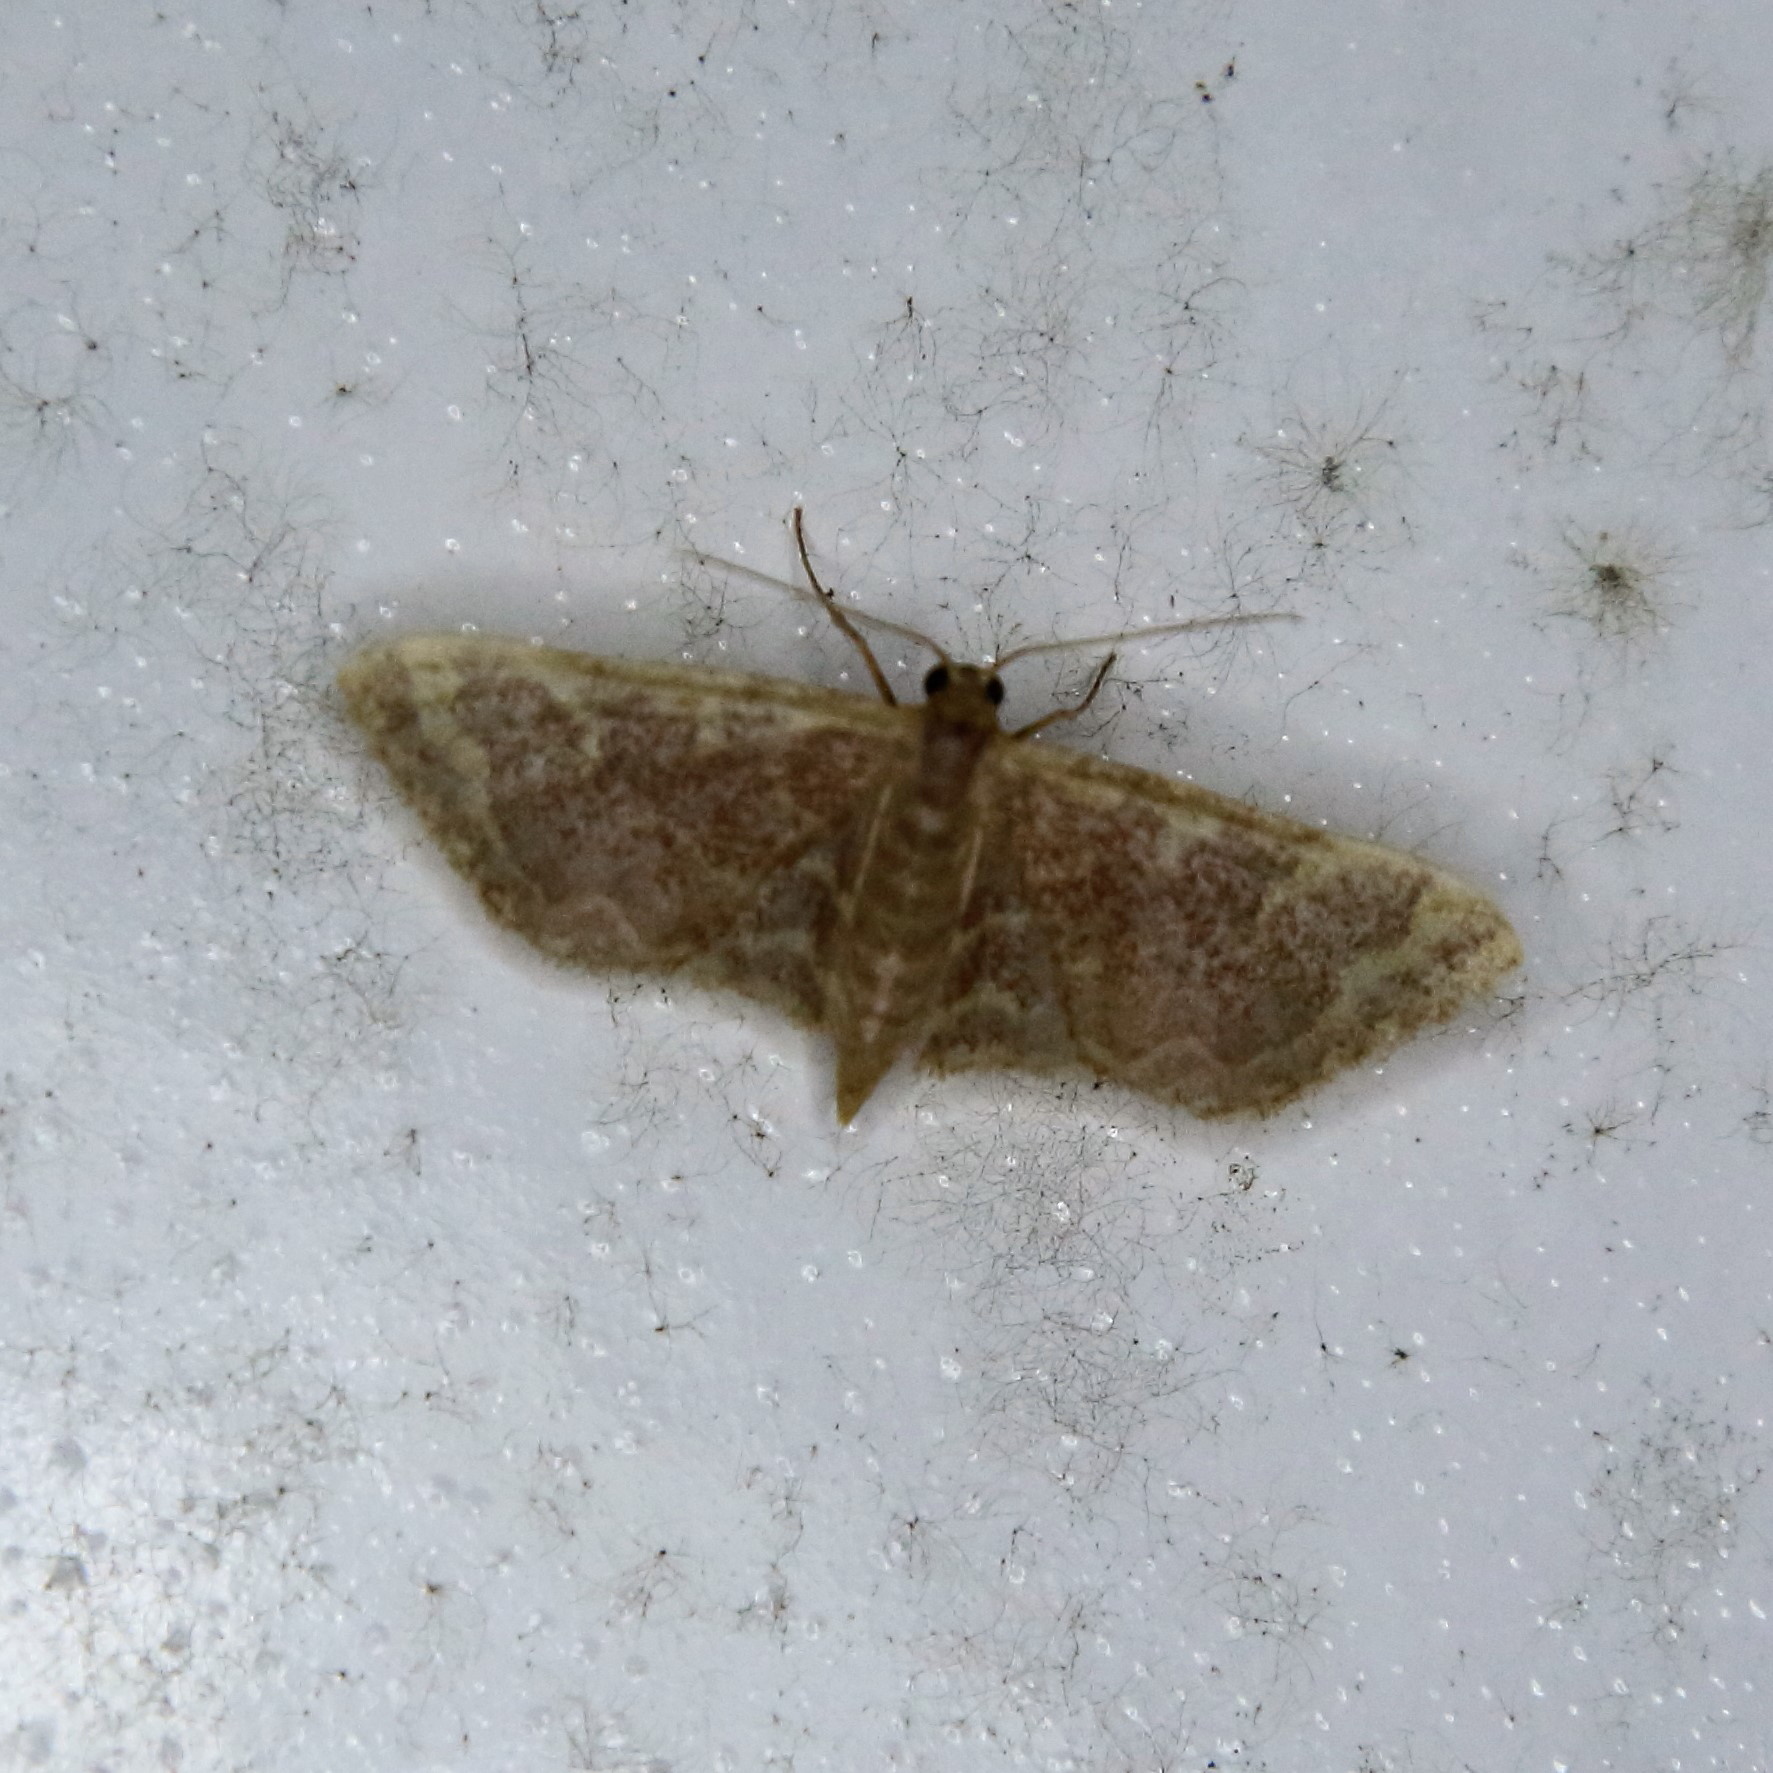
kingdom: Animalia
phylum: Arthropoda
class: Insecta
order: Lepidoptera
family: Geometridae
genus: Lophophleps
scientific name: Lophophleps purpurea
